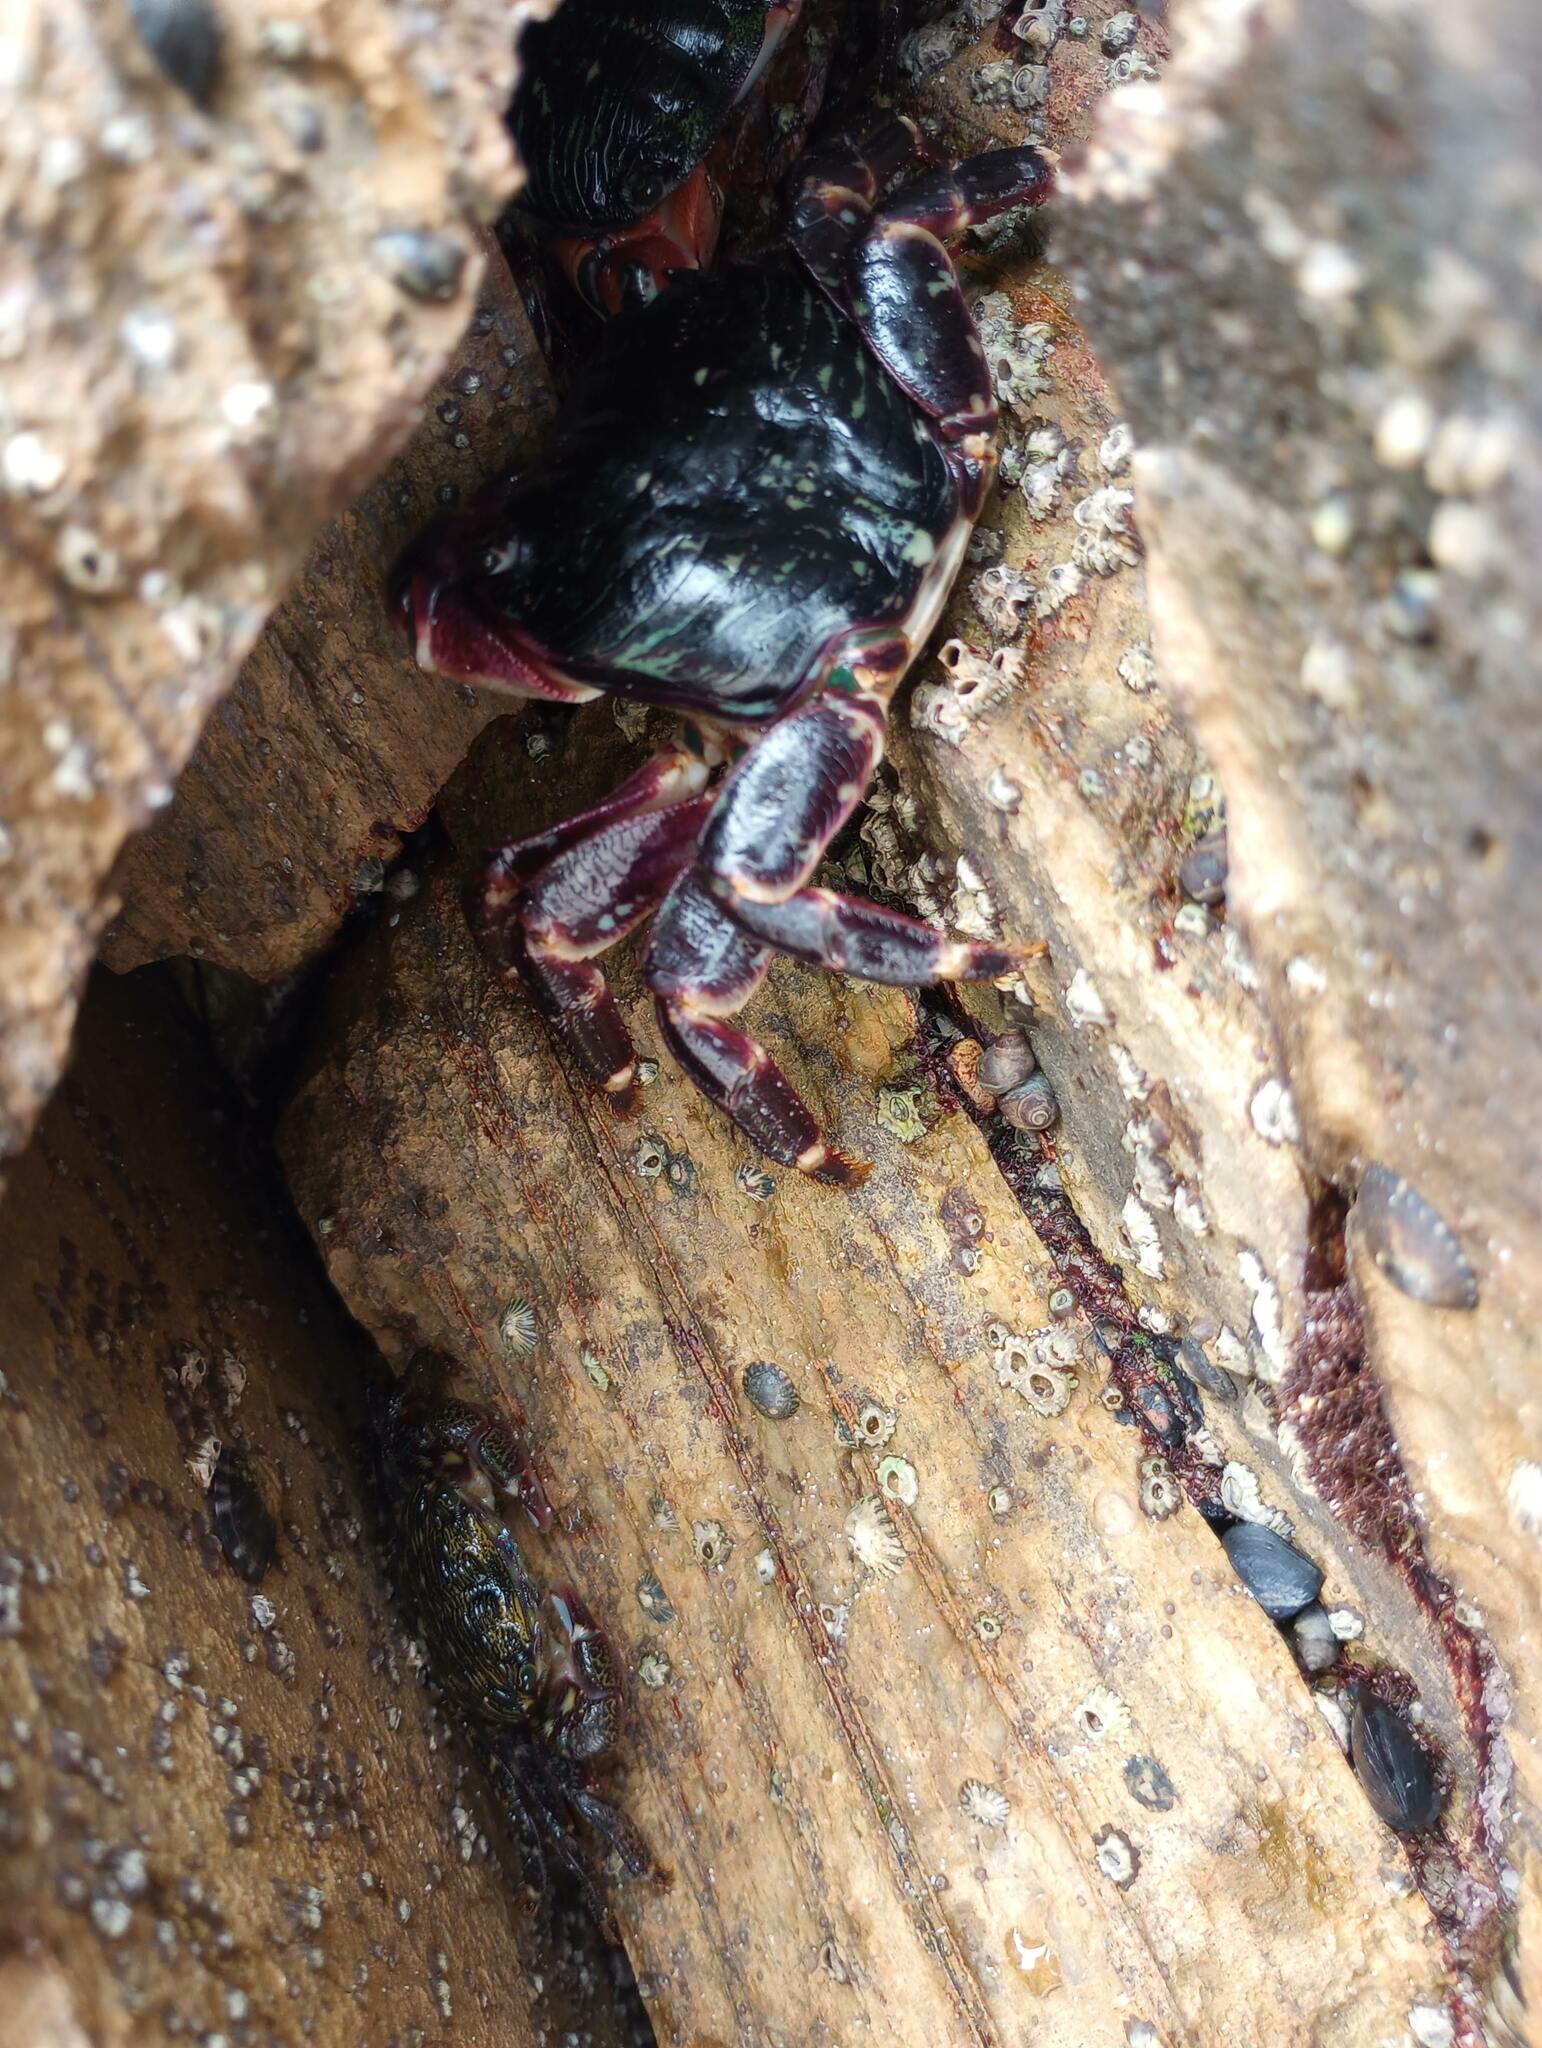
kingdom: Animalia
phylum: Arthropoda
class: Malacostraca
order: Decapoda
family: Grapsidae
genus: Pachygrapsus
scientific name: Pachygrapsus crassipes
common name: Striped shore crab
